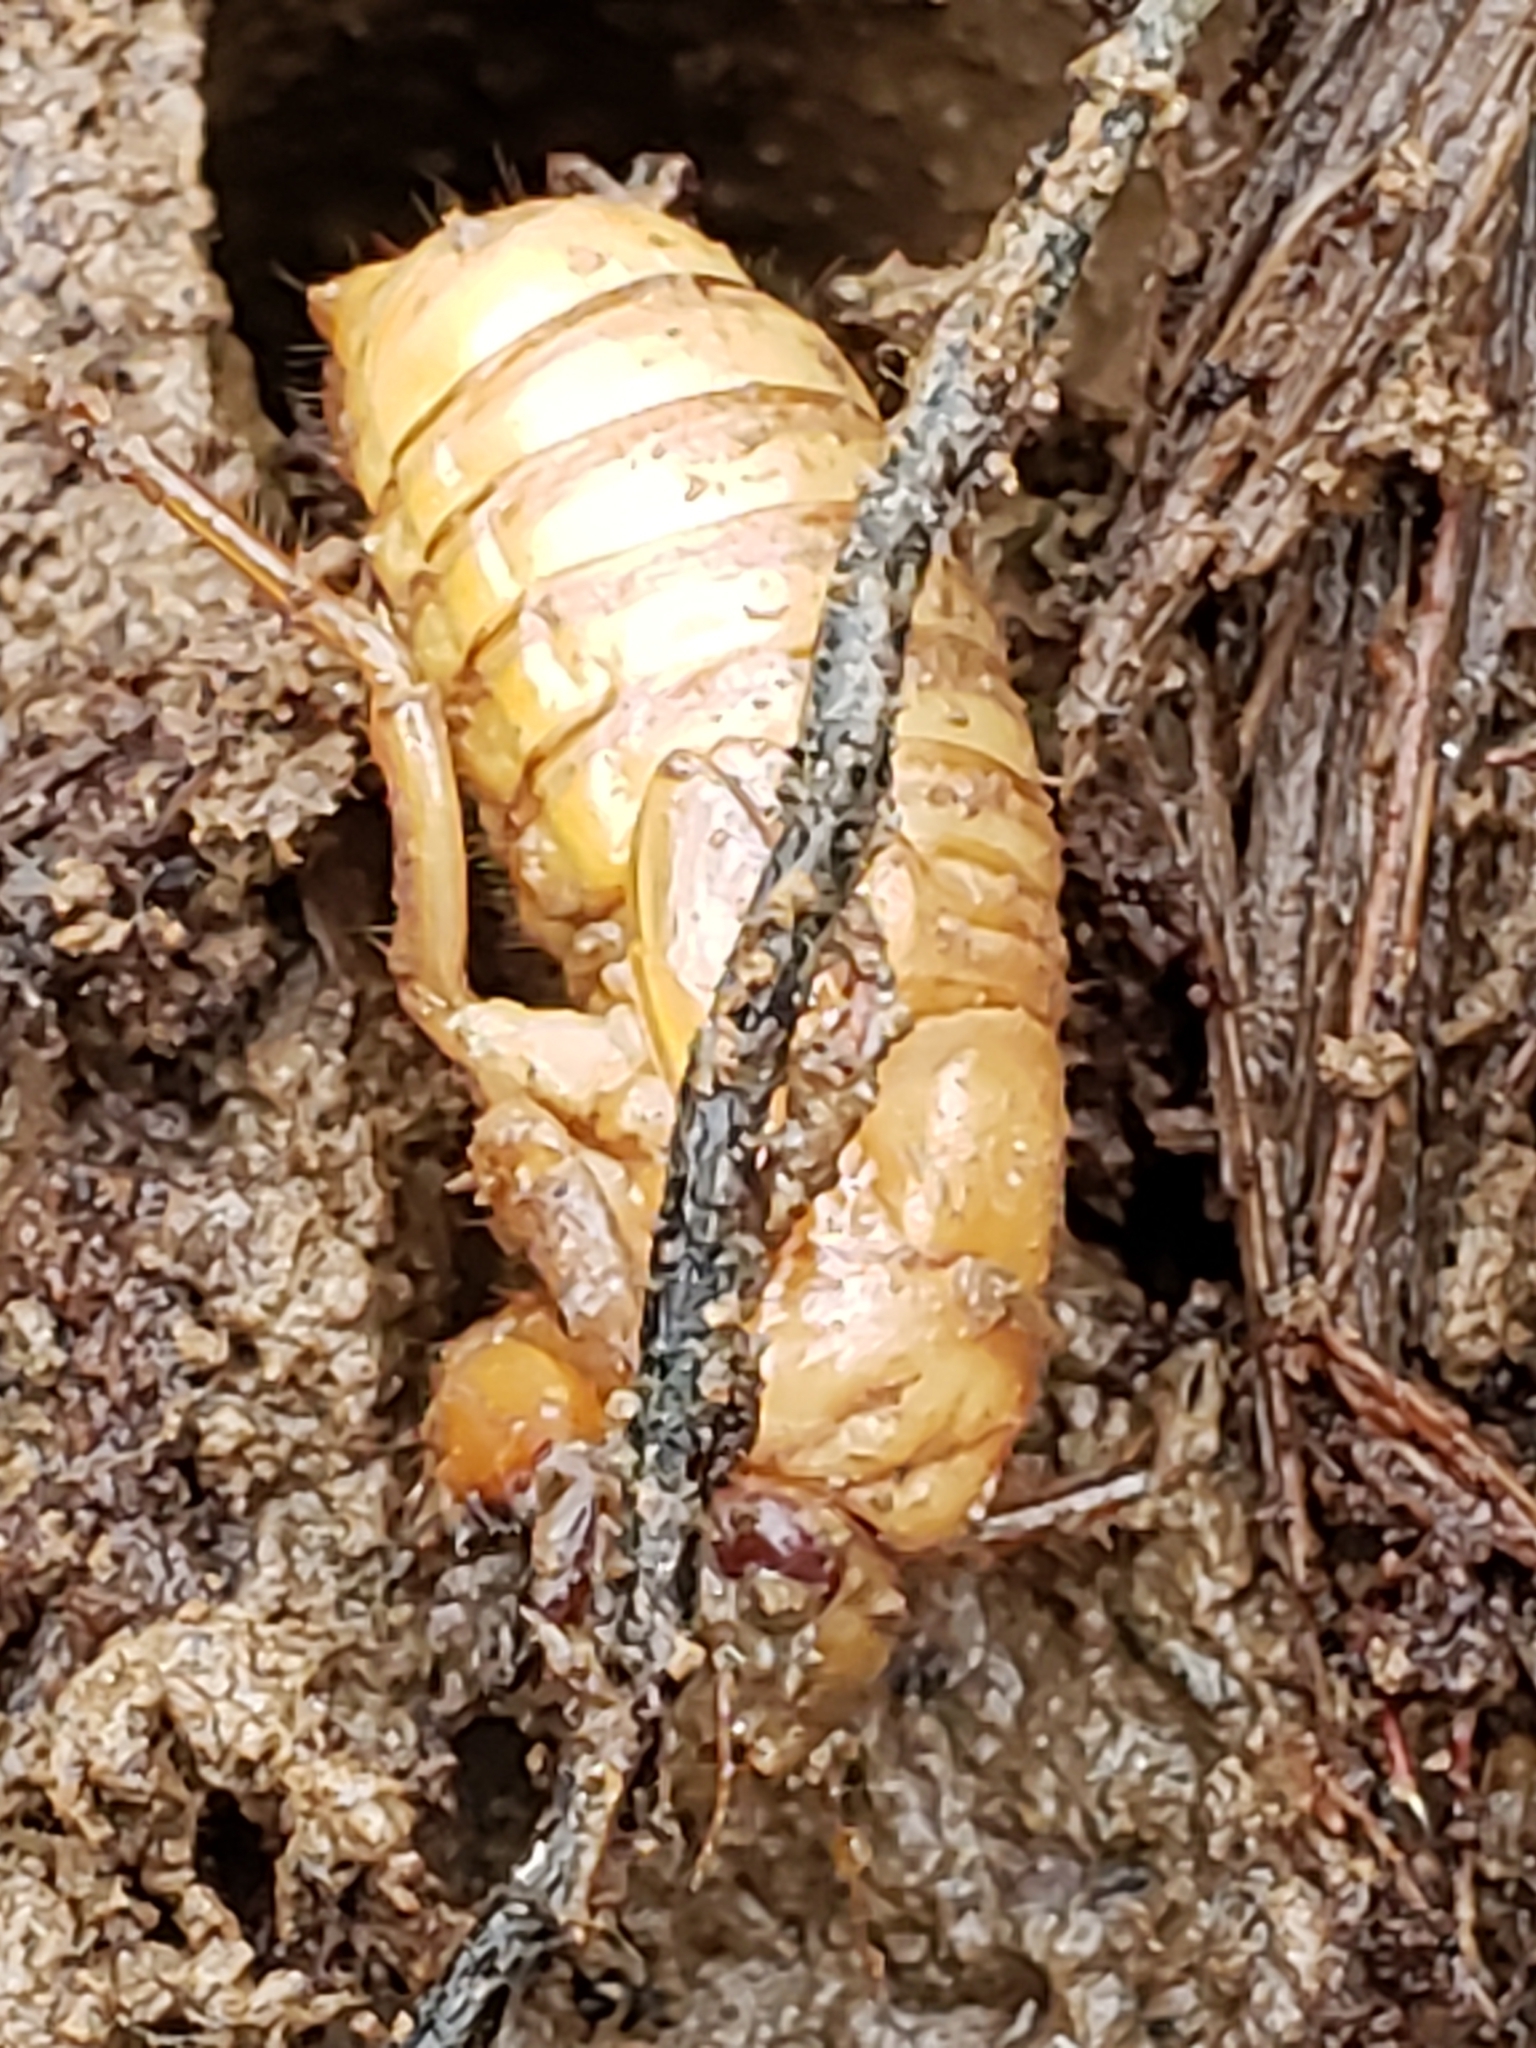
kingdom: Animalia
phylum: Arthropoda
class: Insecta
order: Hemiptera
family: Cicadidae
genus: Magicicada
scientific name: Magicicada
